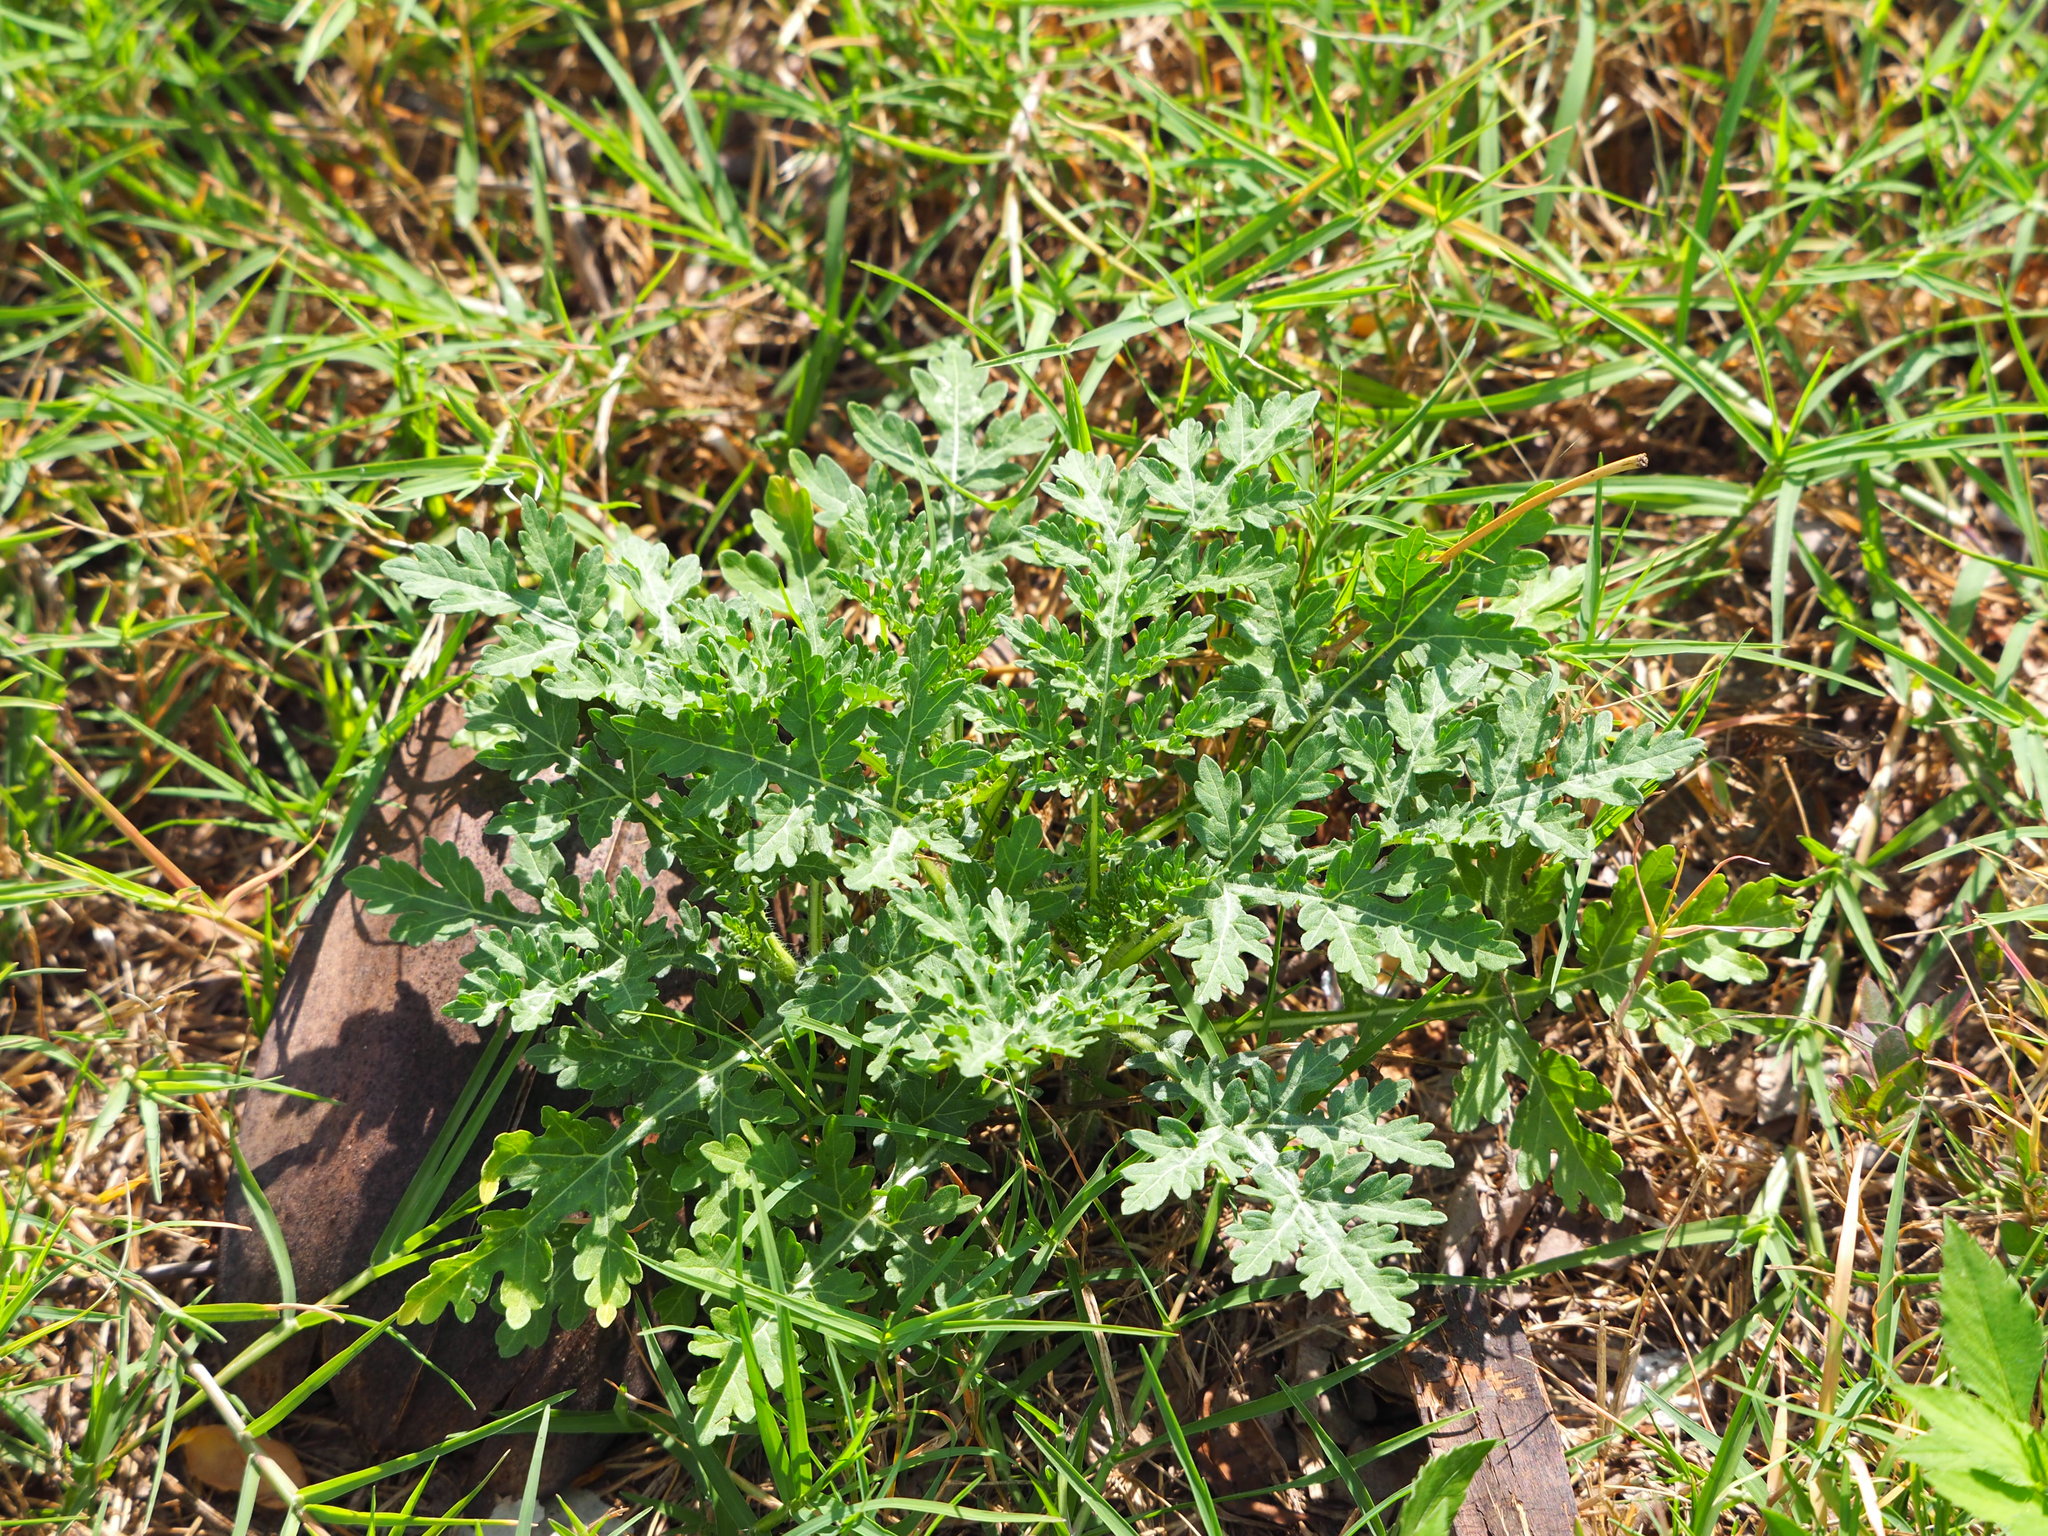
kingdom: Plantae
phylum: Tracheophyta
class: Magnoliopsida
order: Asterales
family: Asteraceae
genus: Parthenium
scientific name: Parthenium hysterophorus
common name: Santa maria feverfew
